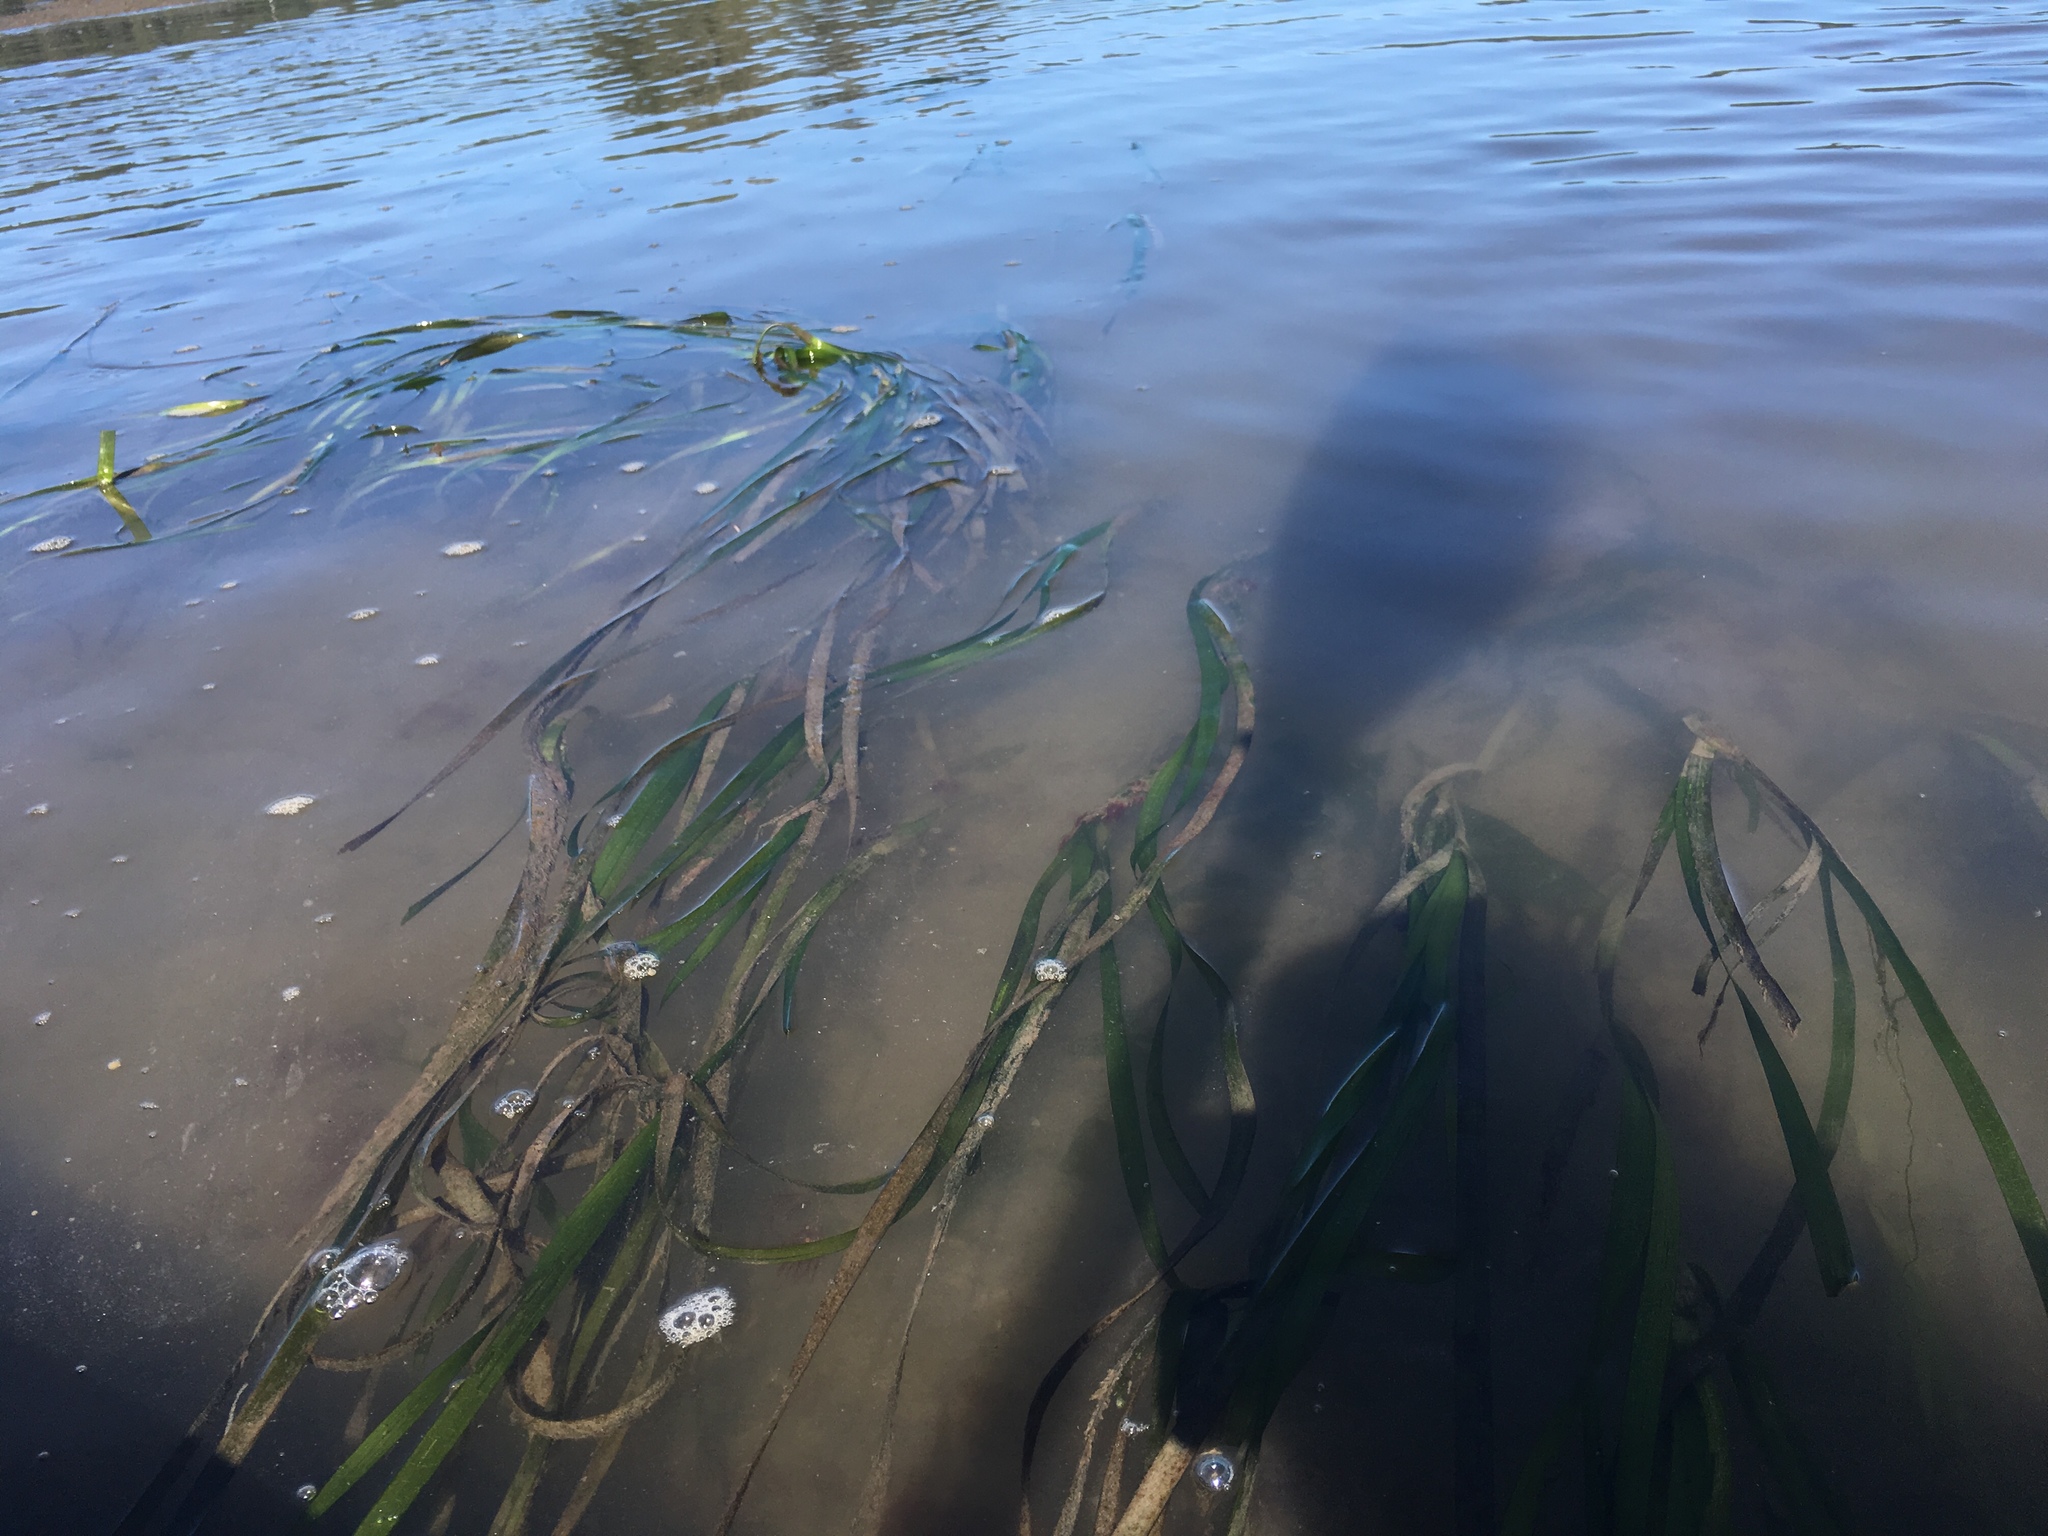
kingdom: Plantae
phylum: Tracheophyta
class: Liliopsida
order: Alismatales
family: Zosteraceae
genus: Zostera
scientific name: Zostera marina
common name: Eelgrass
